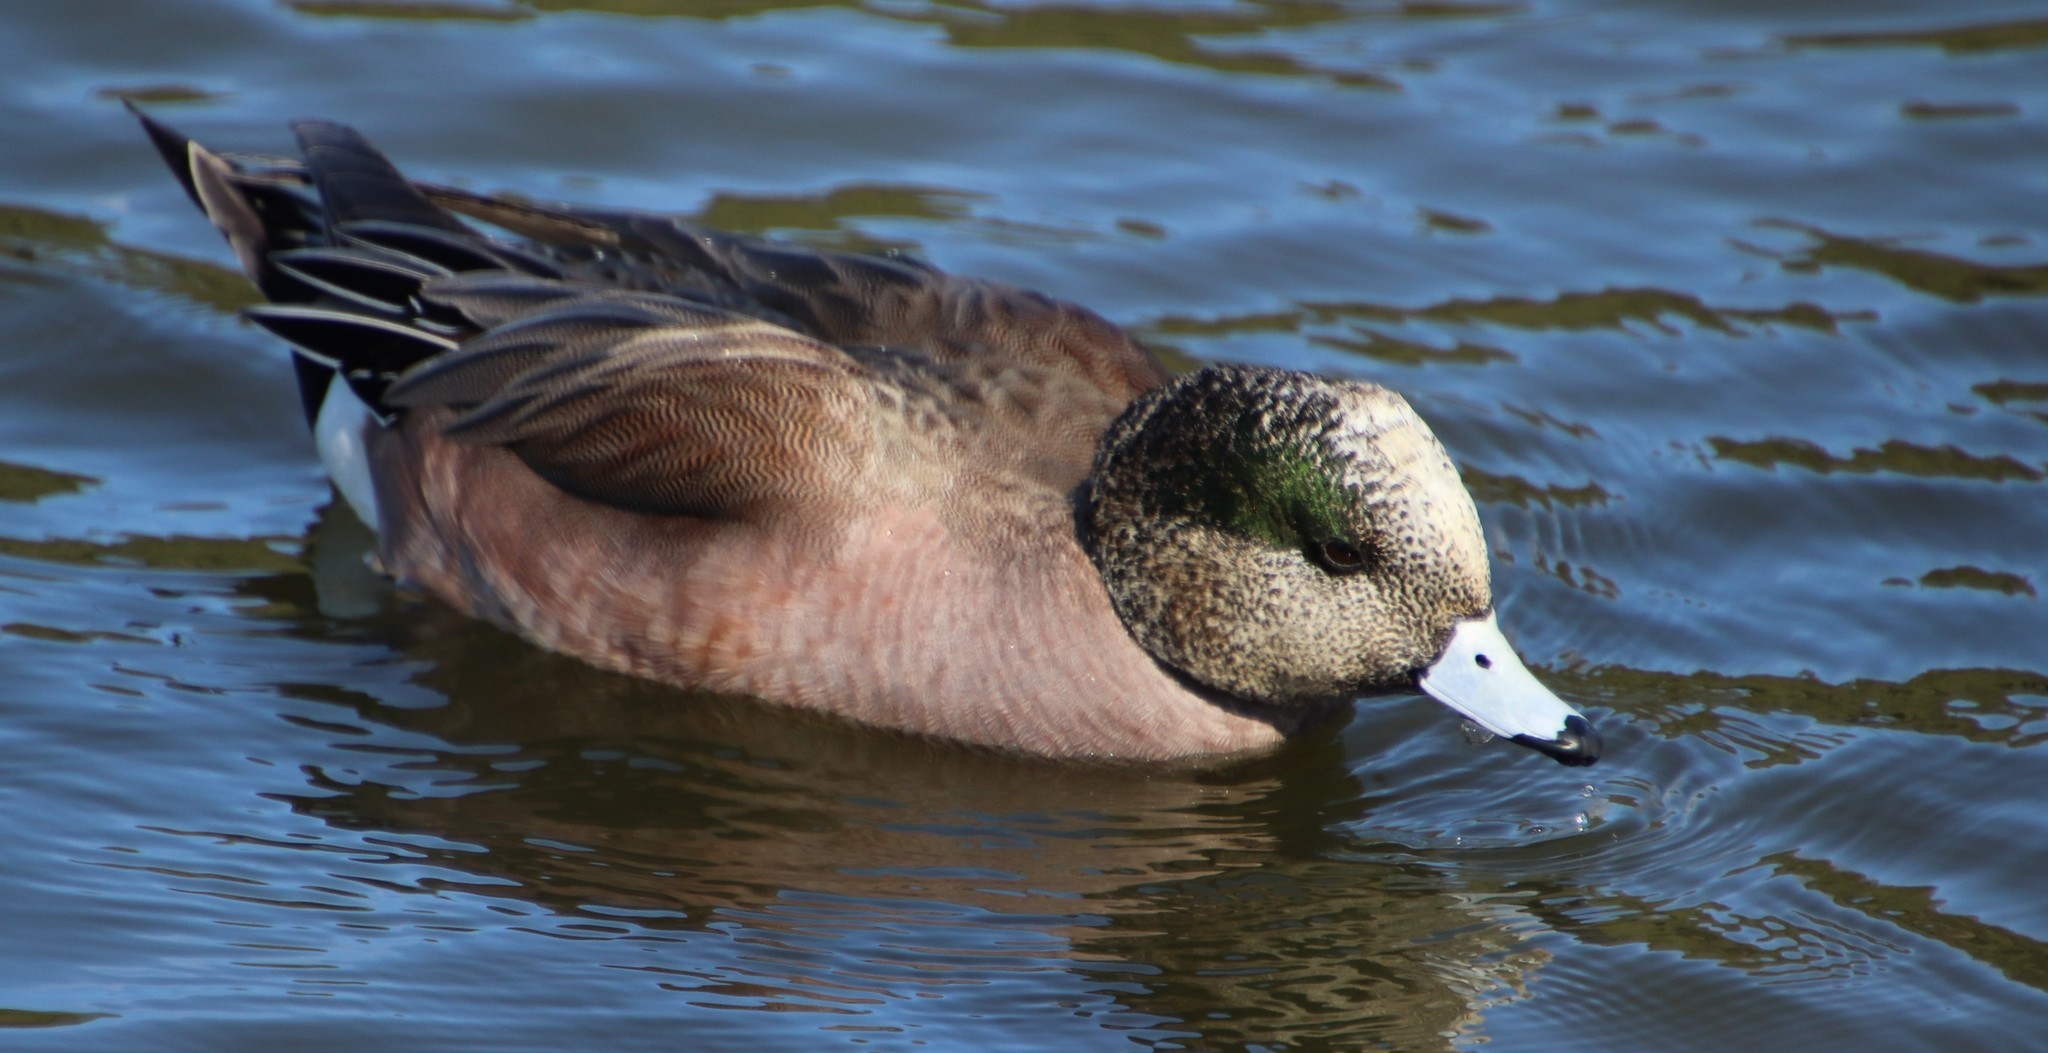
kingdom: Animalia
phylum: Chordata
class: Aves
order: Anseriformes
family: Anatidae
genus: Mareca
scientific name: Mareca americana
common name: American wigeon
